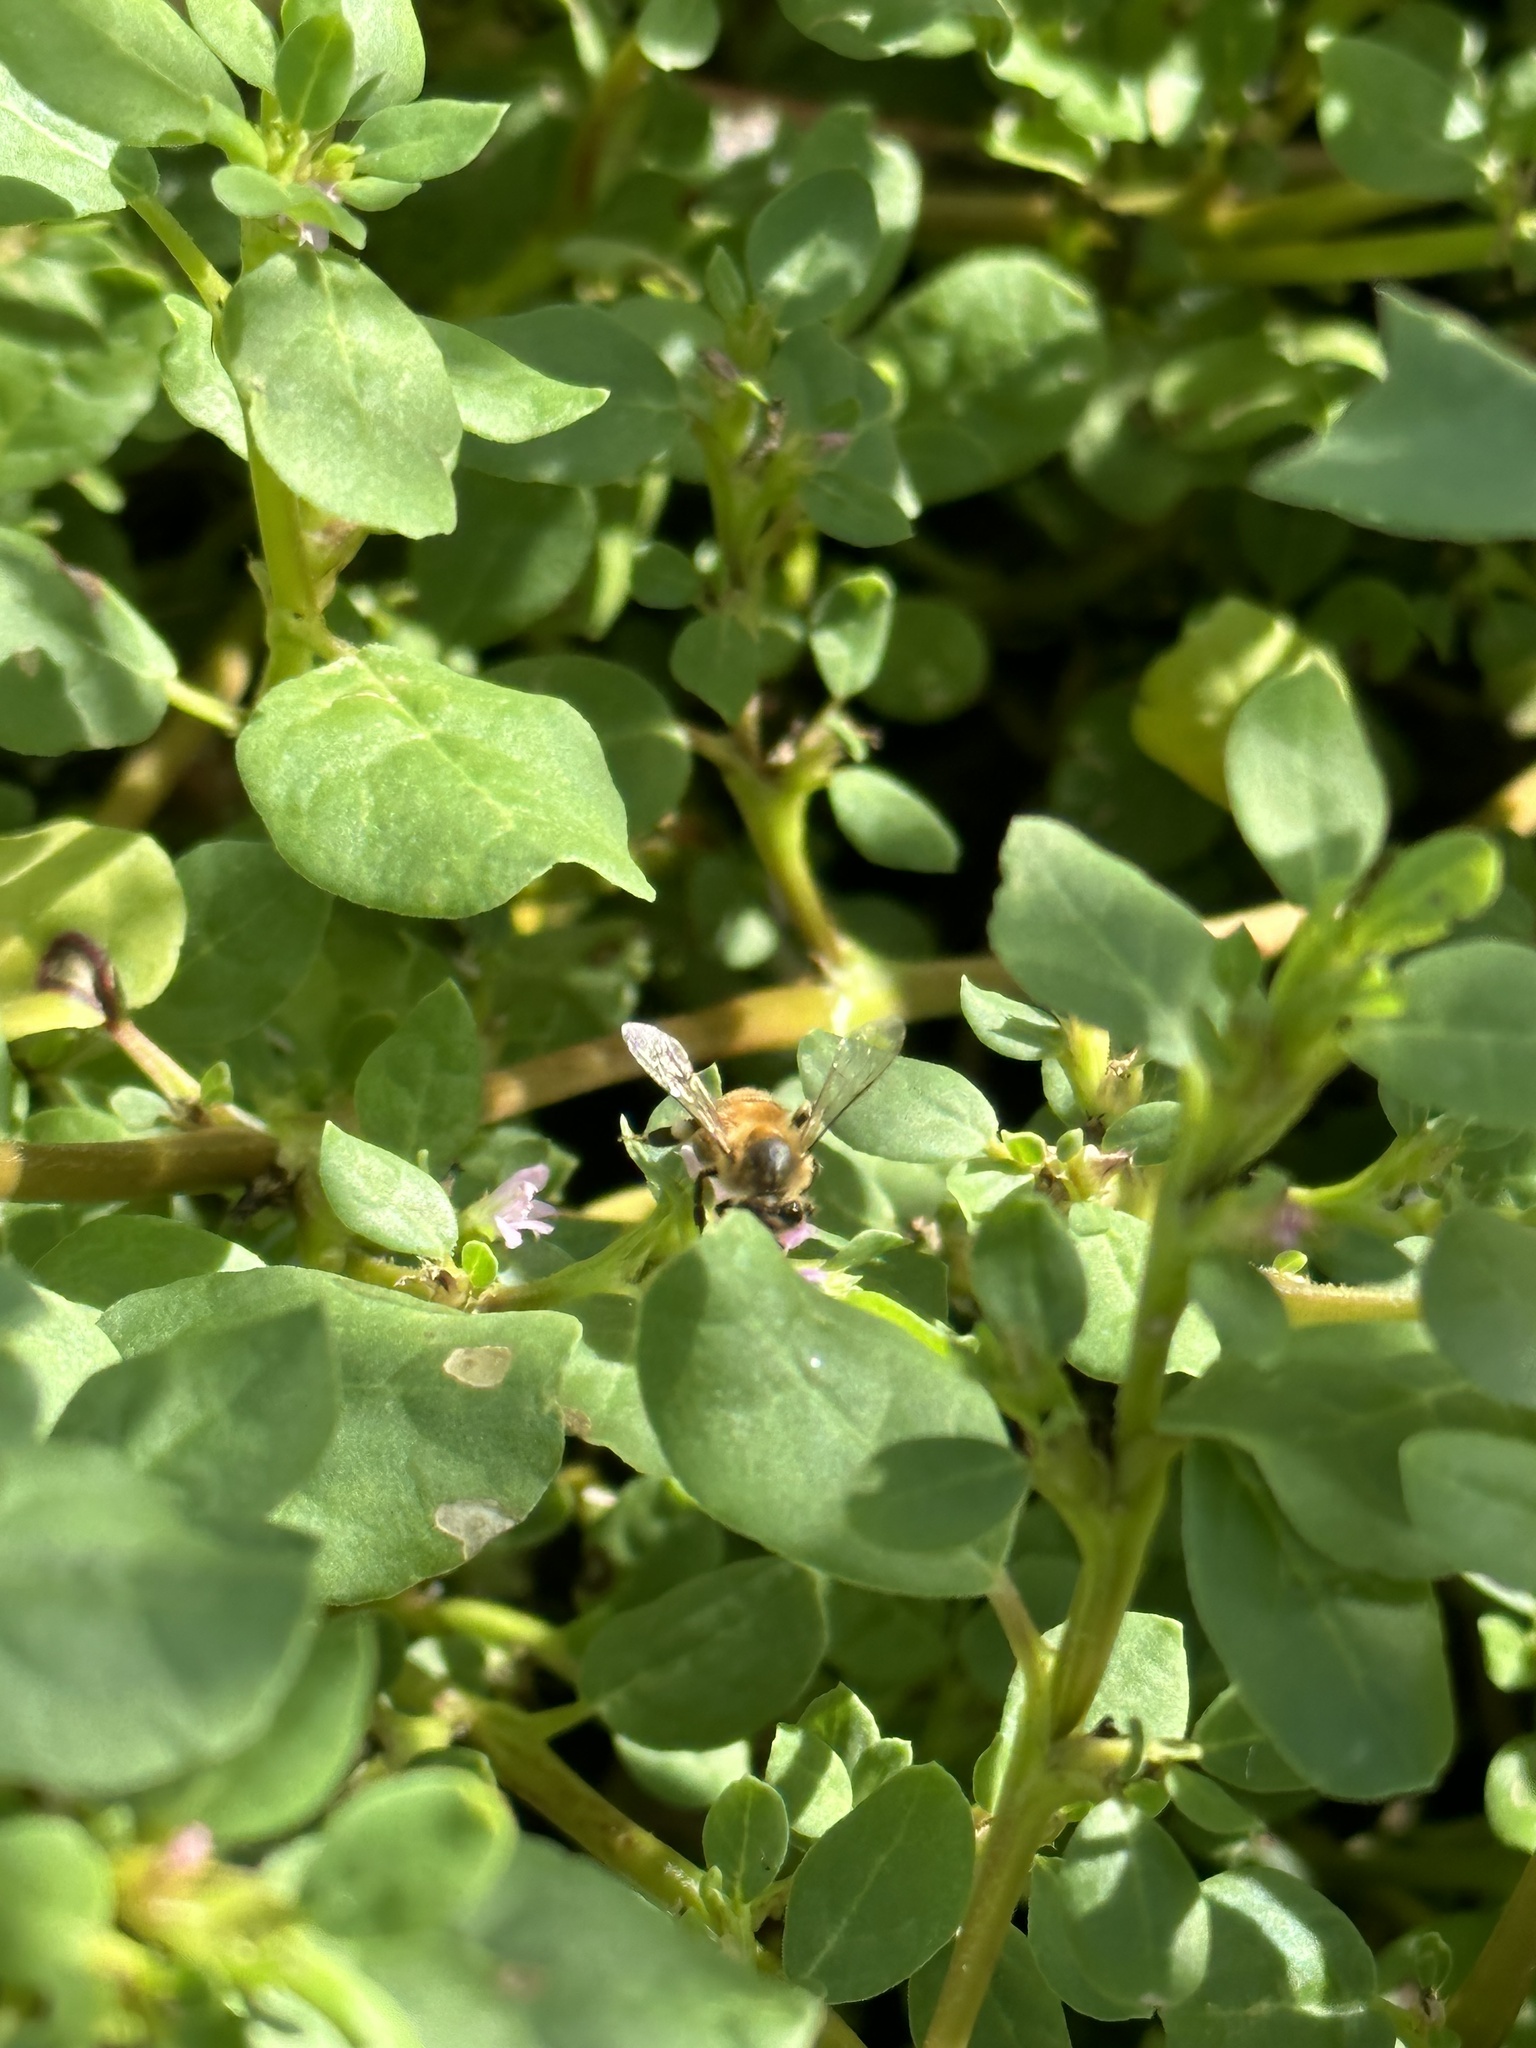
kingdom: Animalia
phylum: Arthropoda
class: Insecta
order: Hymenoptera
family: Apidae
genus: Apis
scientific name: Apis mellifera
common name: Honey bee
